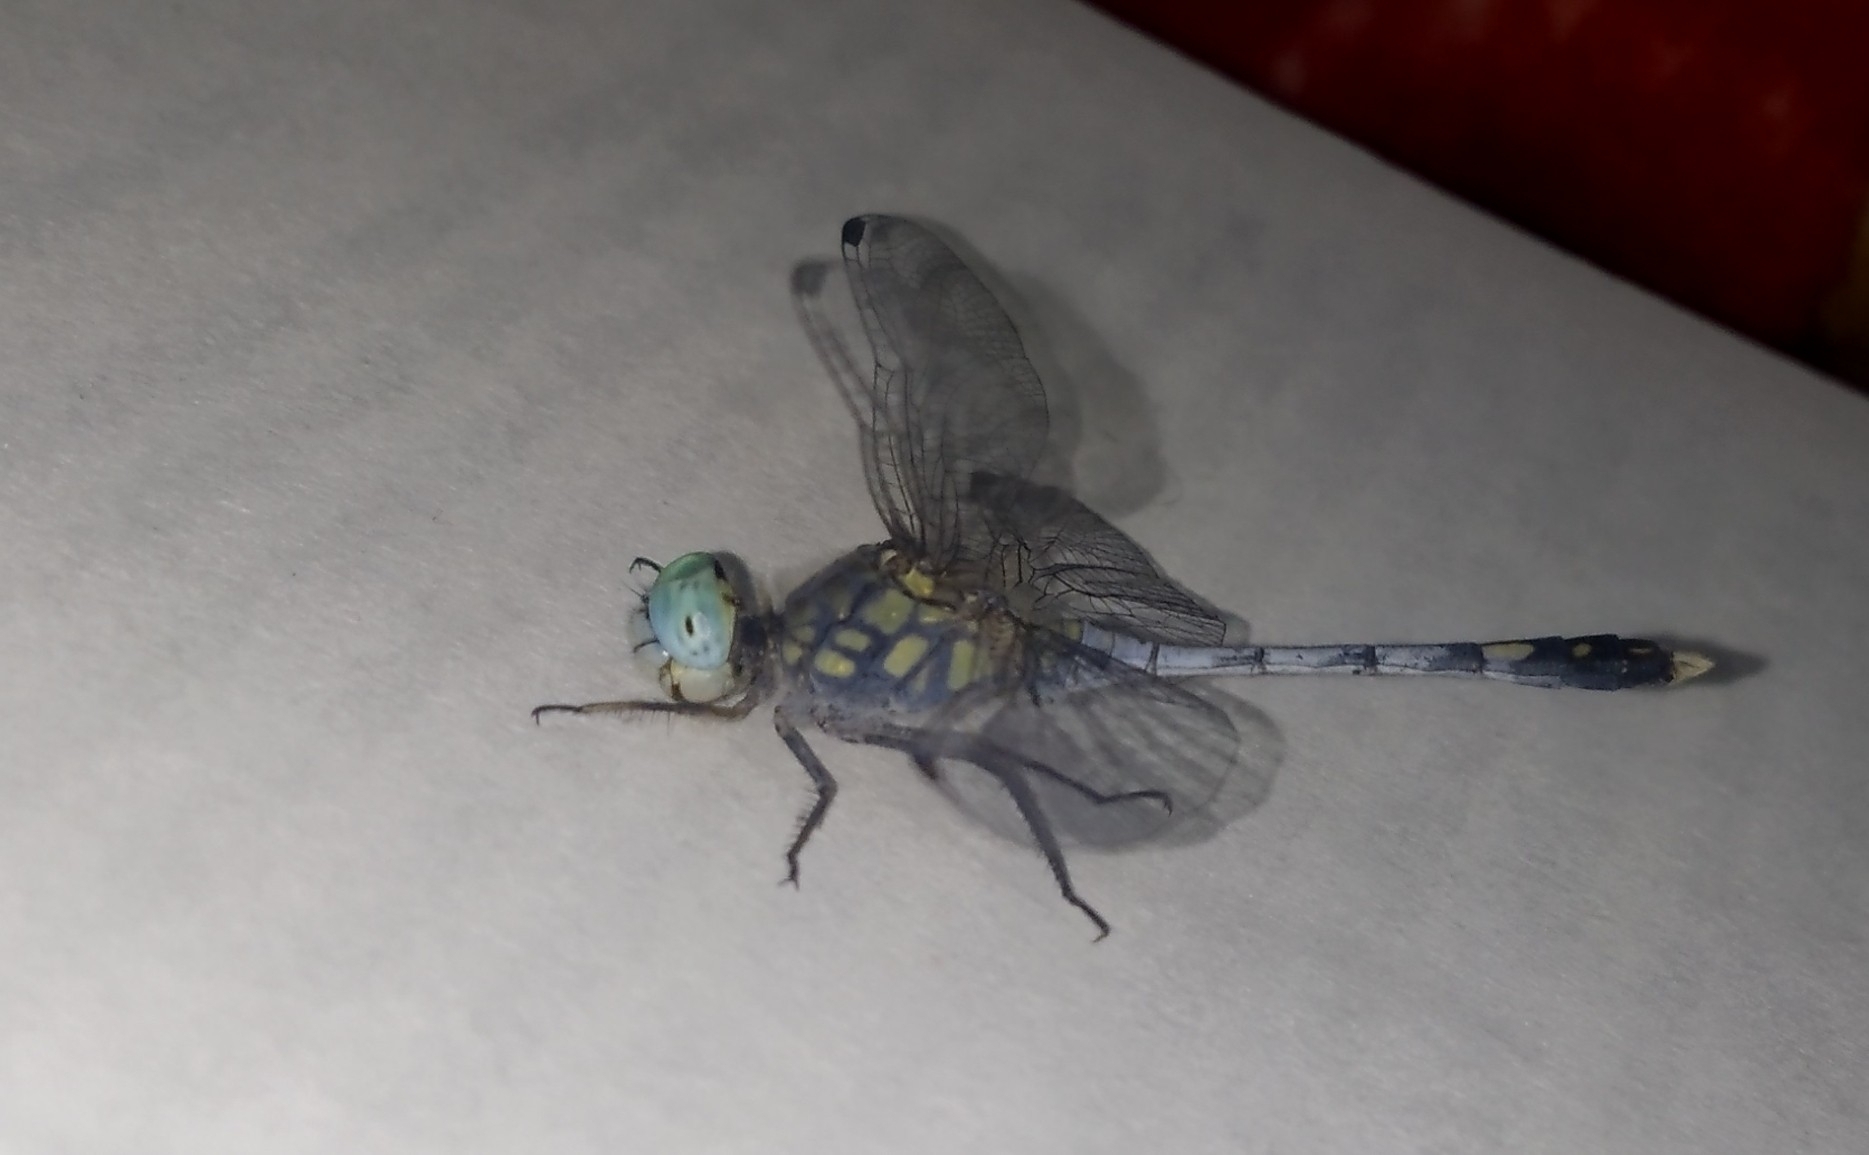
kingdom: Animalia
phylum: Arthropoda
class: Insecta
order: Odonata
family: Libellulidae
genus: Diplacodes
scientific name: Diplacodes trivialis
